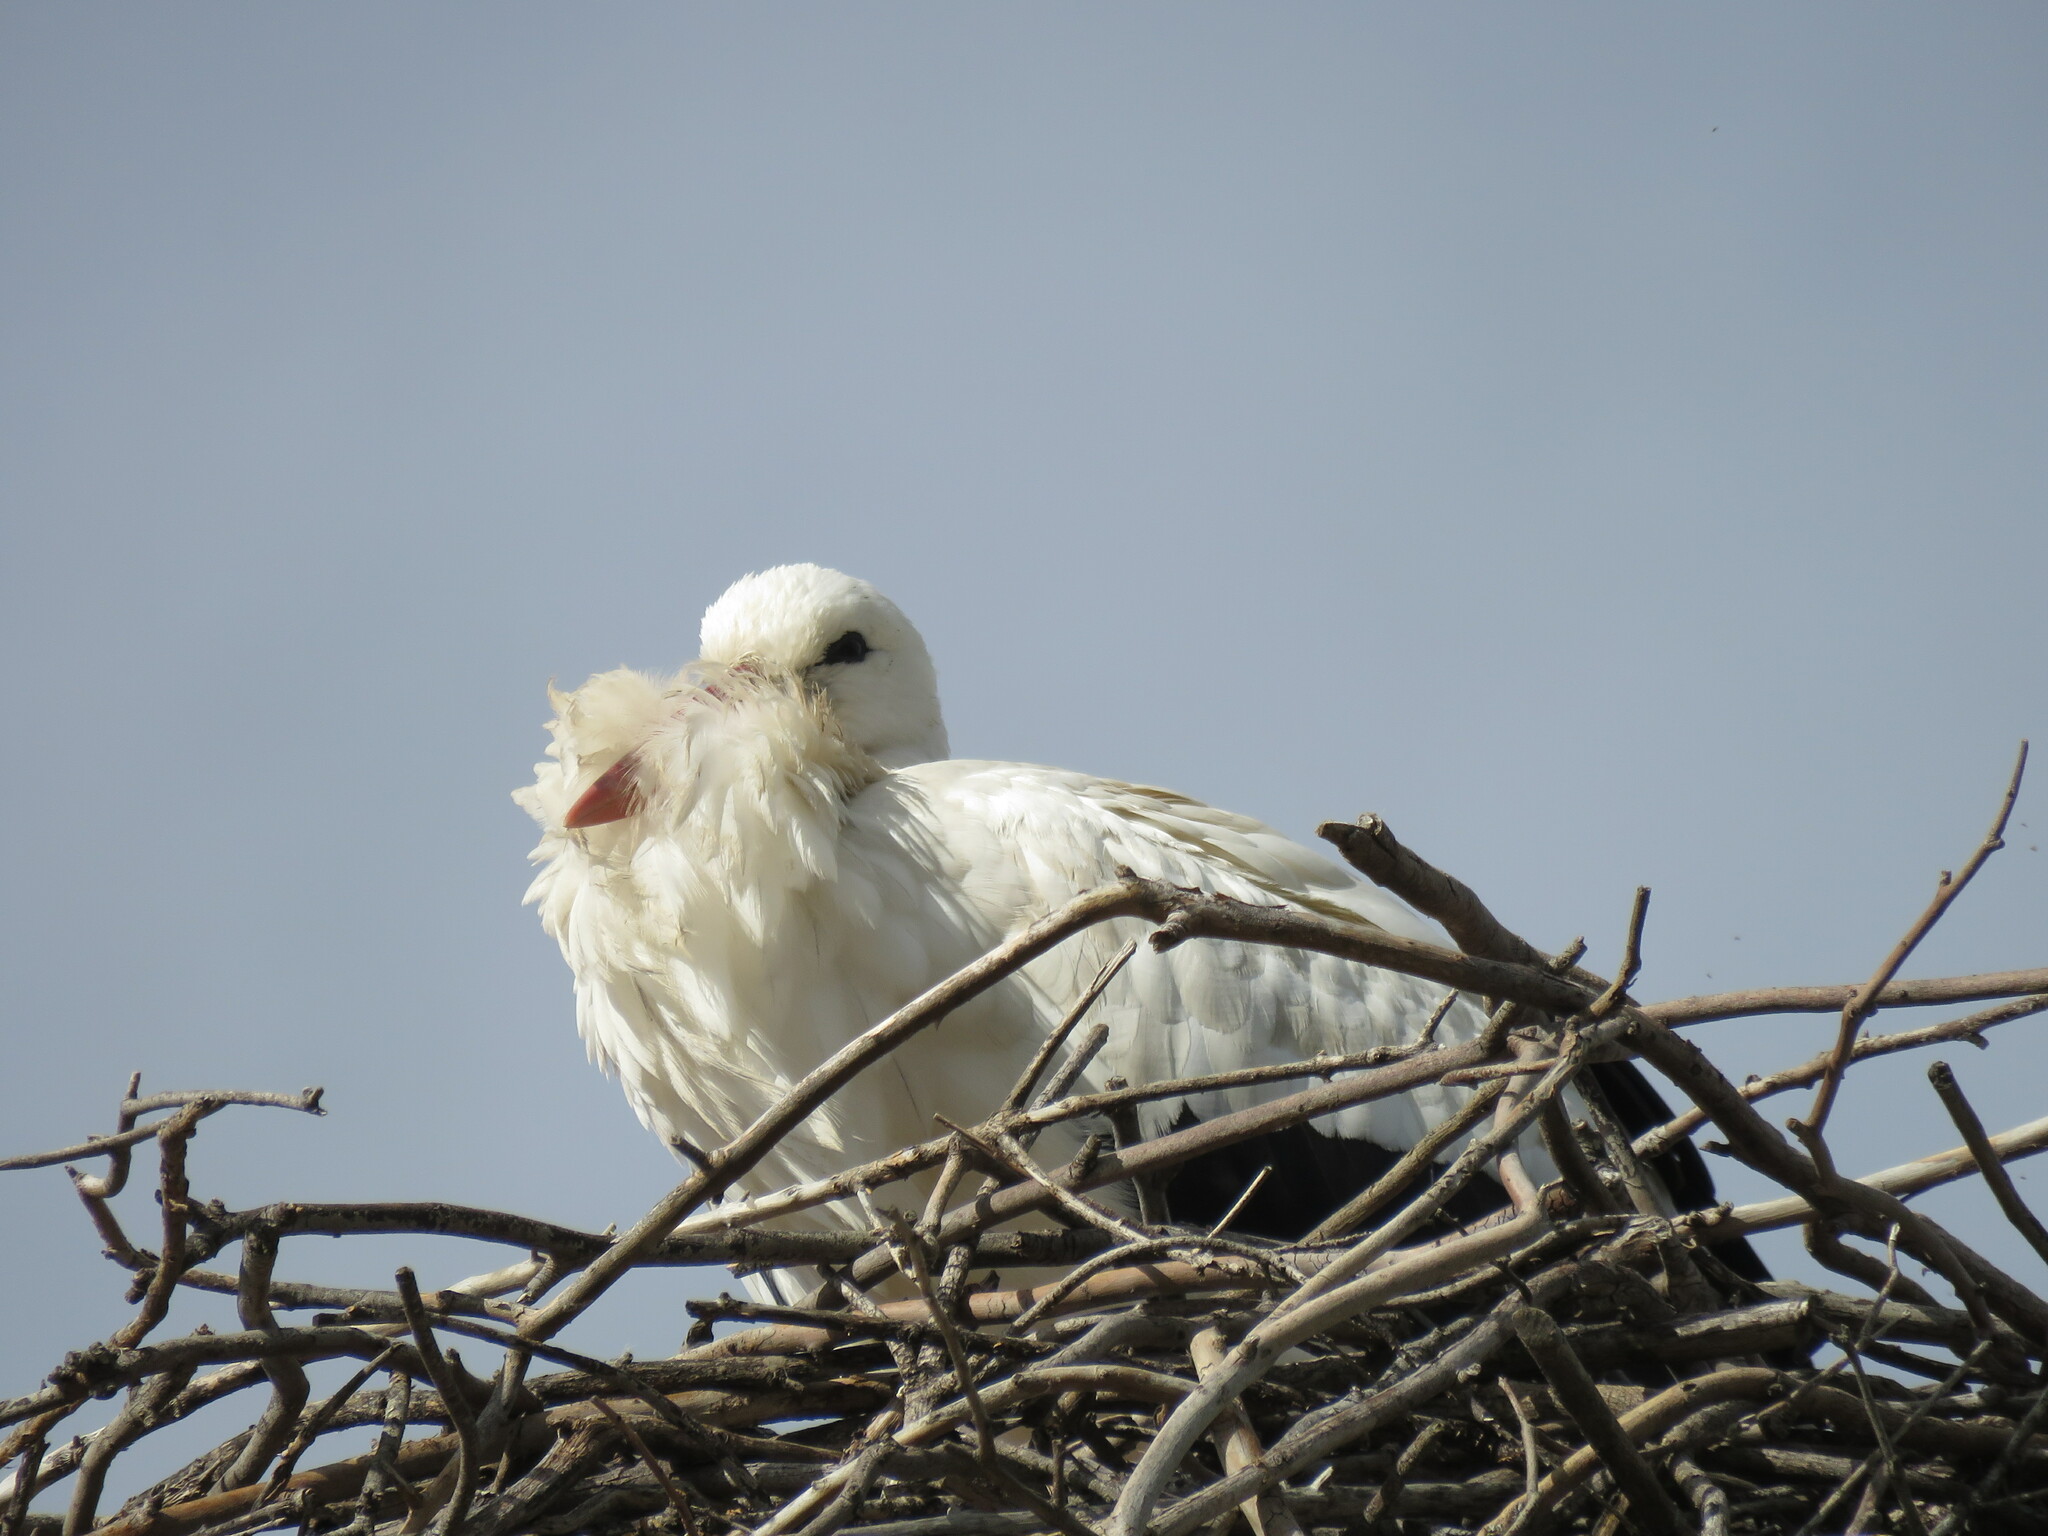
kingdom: Animalia
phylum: Chordata
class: Aves
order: Ciconiiformes
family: Ciconiidae
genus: Ciconia
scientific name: Ciconia ciconia
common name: White stork
